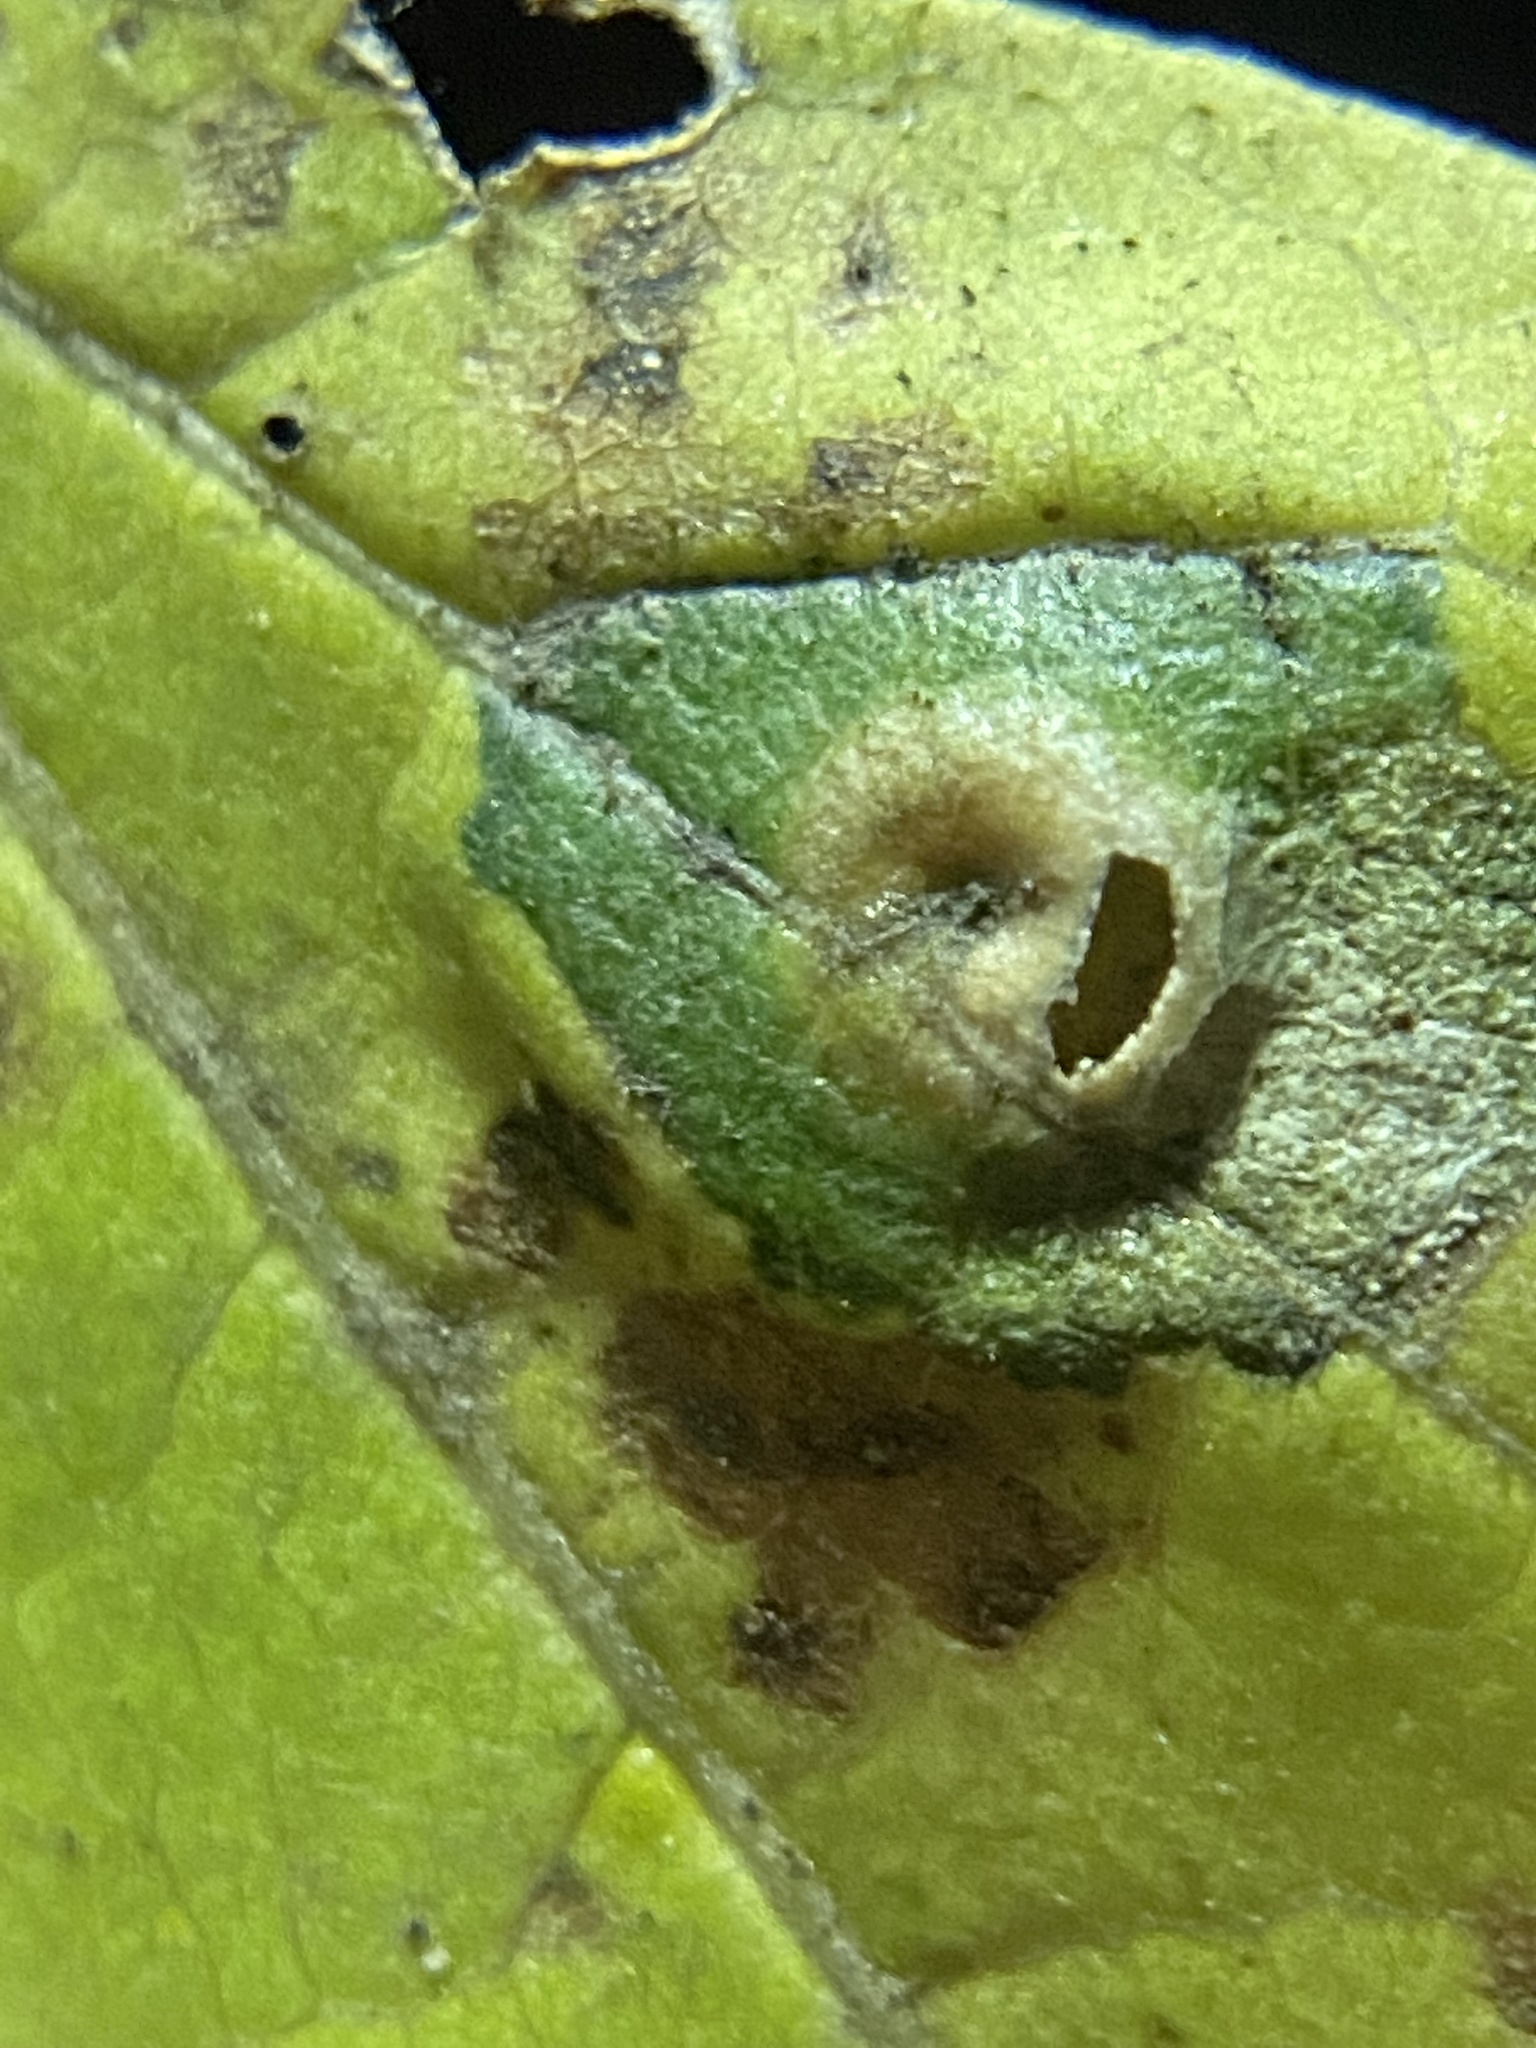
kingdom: Animalia
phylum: Arthropoda
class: Insecta
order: Hemiptera
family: Aphalaridae
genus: Pachypsylla
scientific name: Pachypsylla celtidisasterisca
